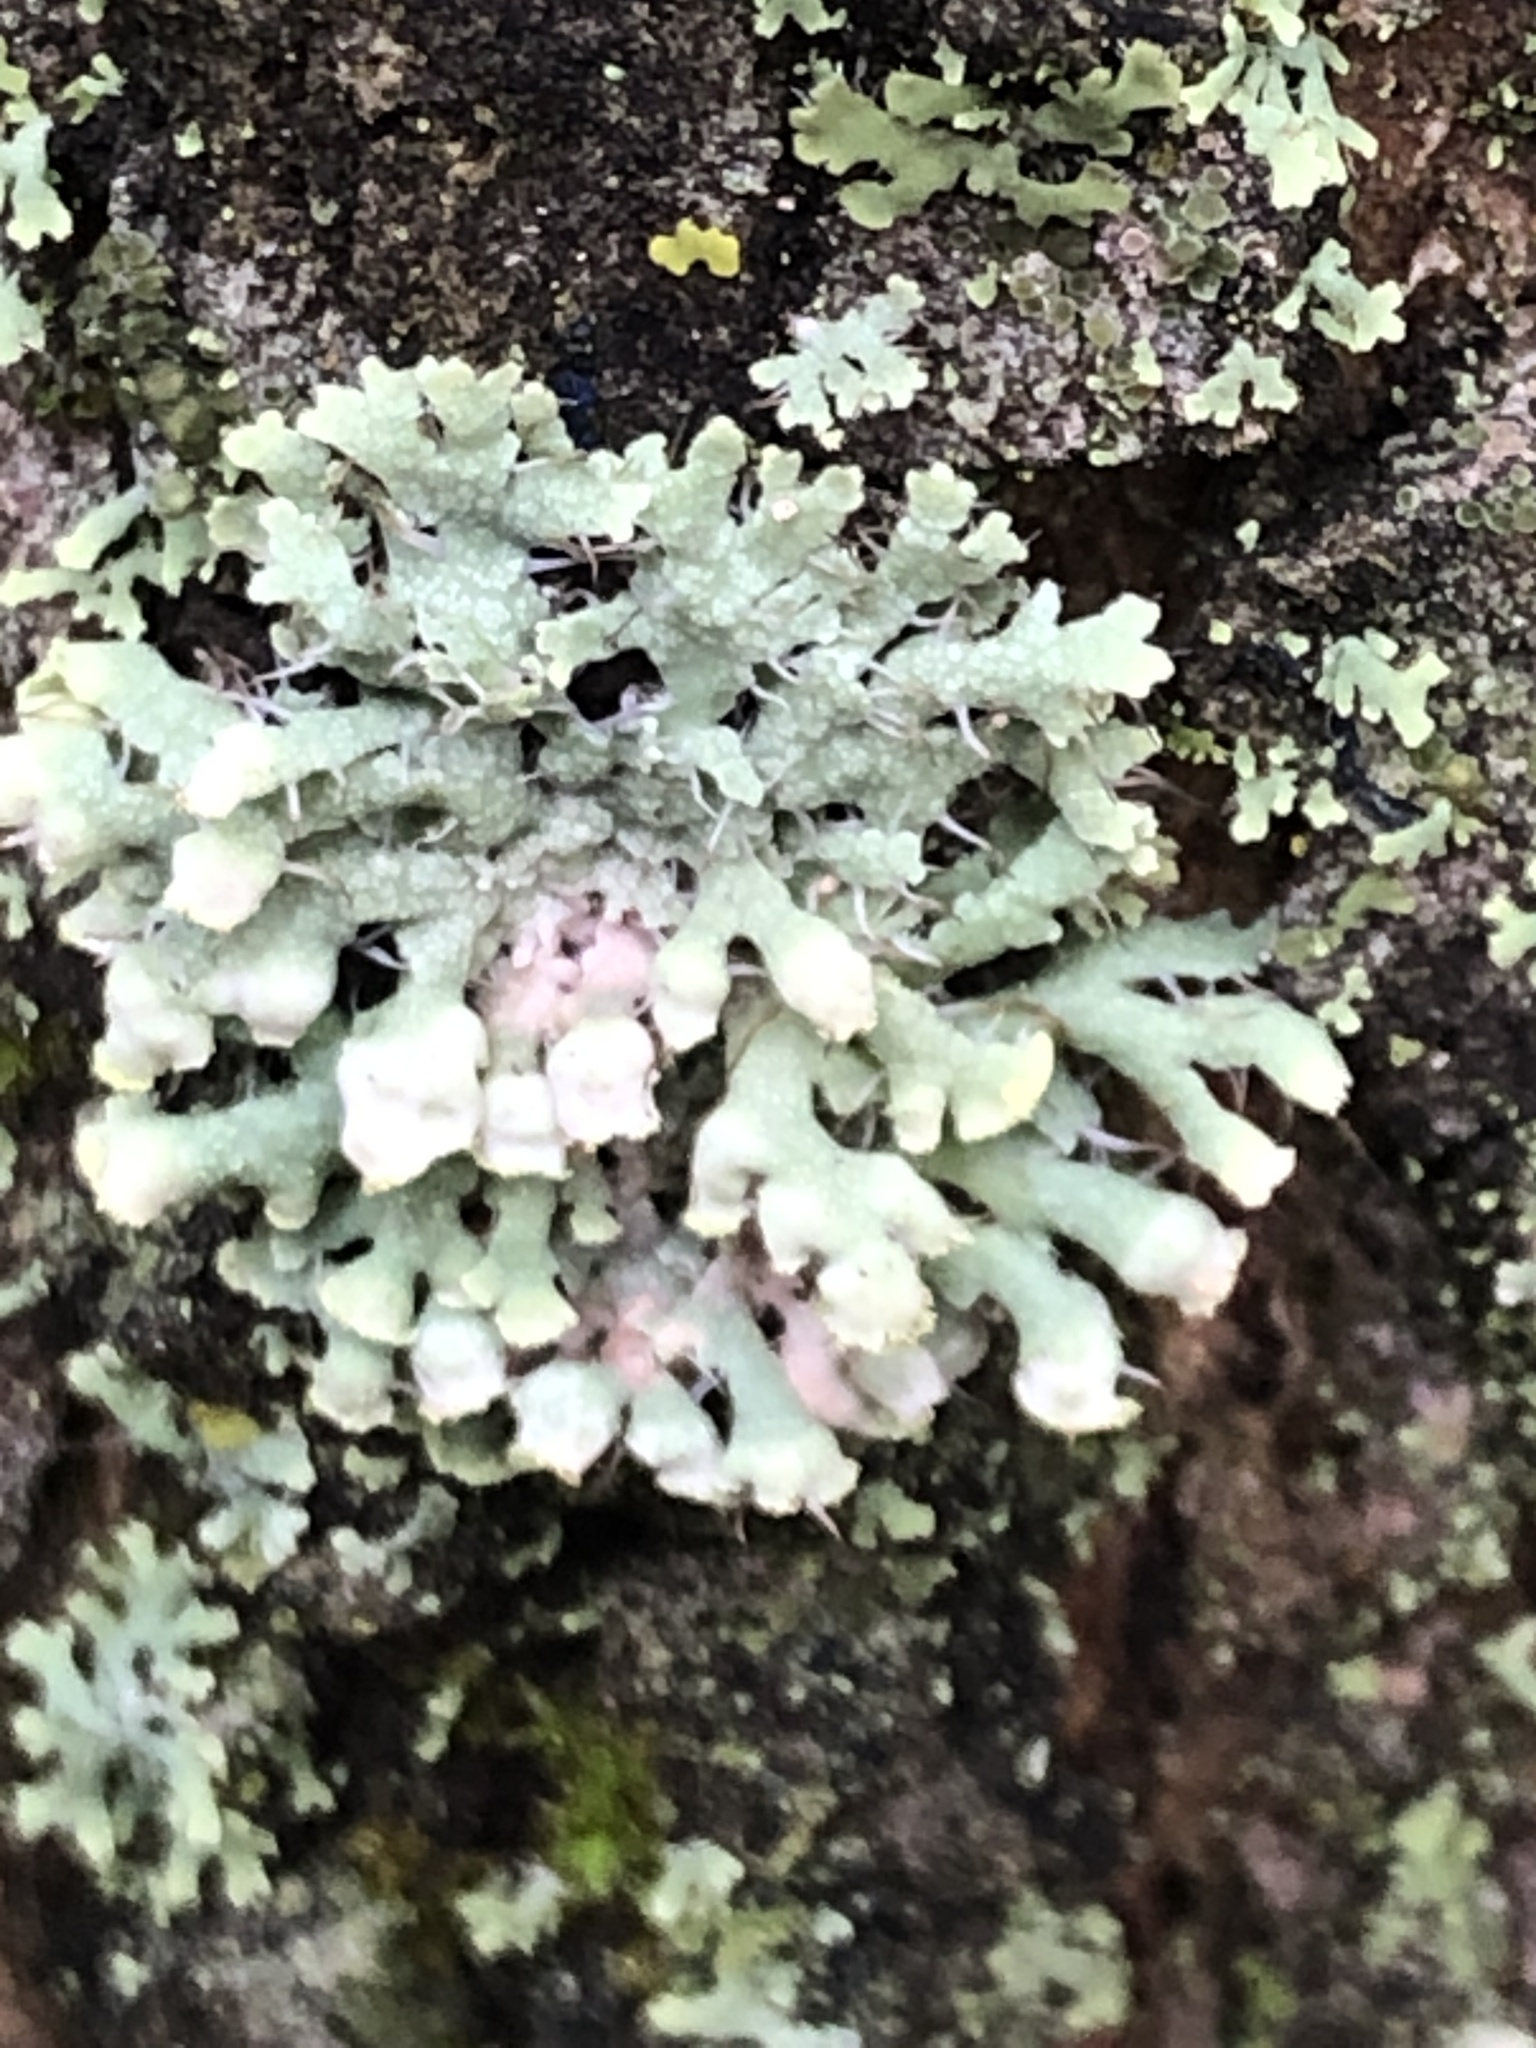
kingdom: Fungi
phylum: Ascomycota
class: Lecanoromycetes
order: Caliciales
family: Physciaceae
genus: Physcia
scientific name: Physcia adscendens
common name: Hooded rosette lichen
